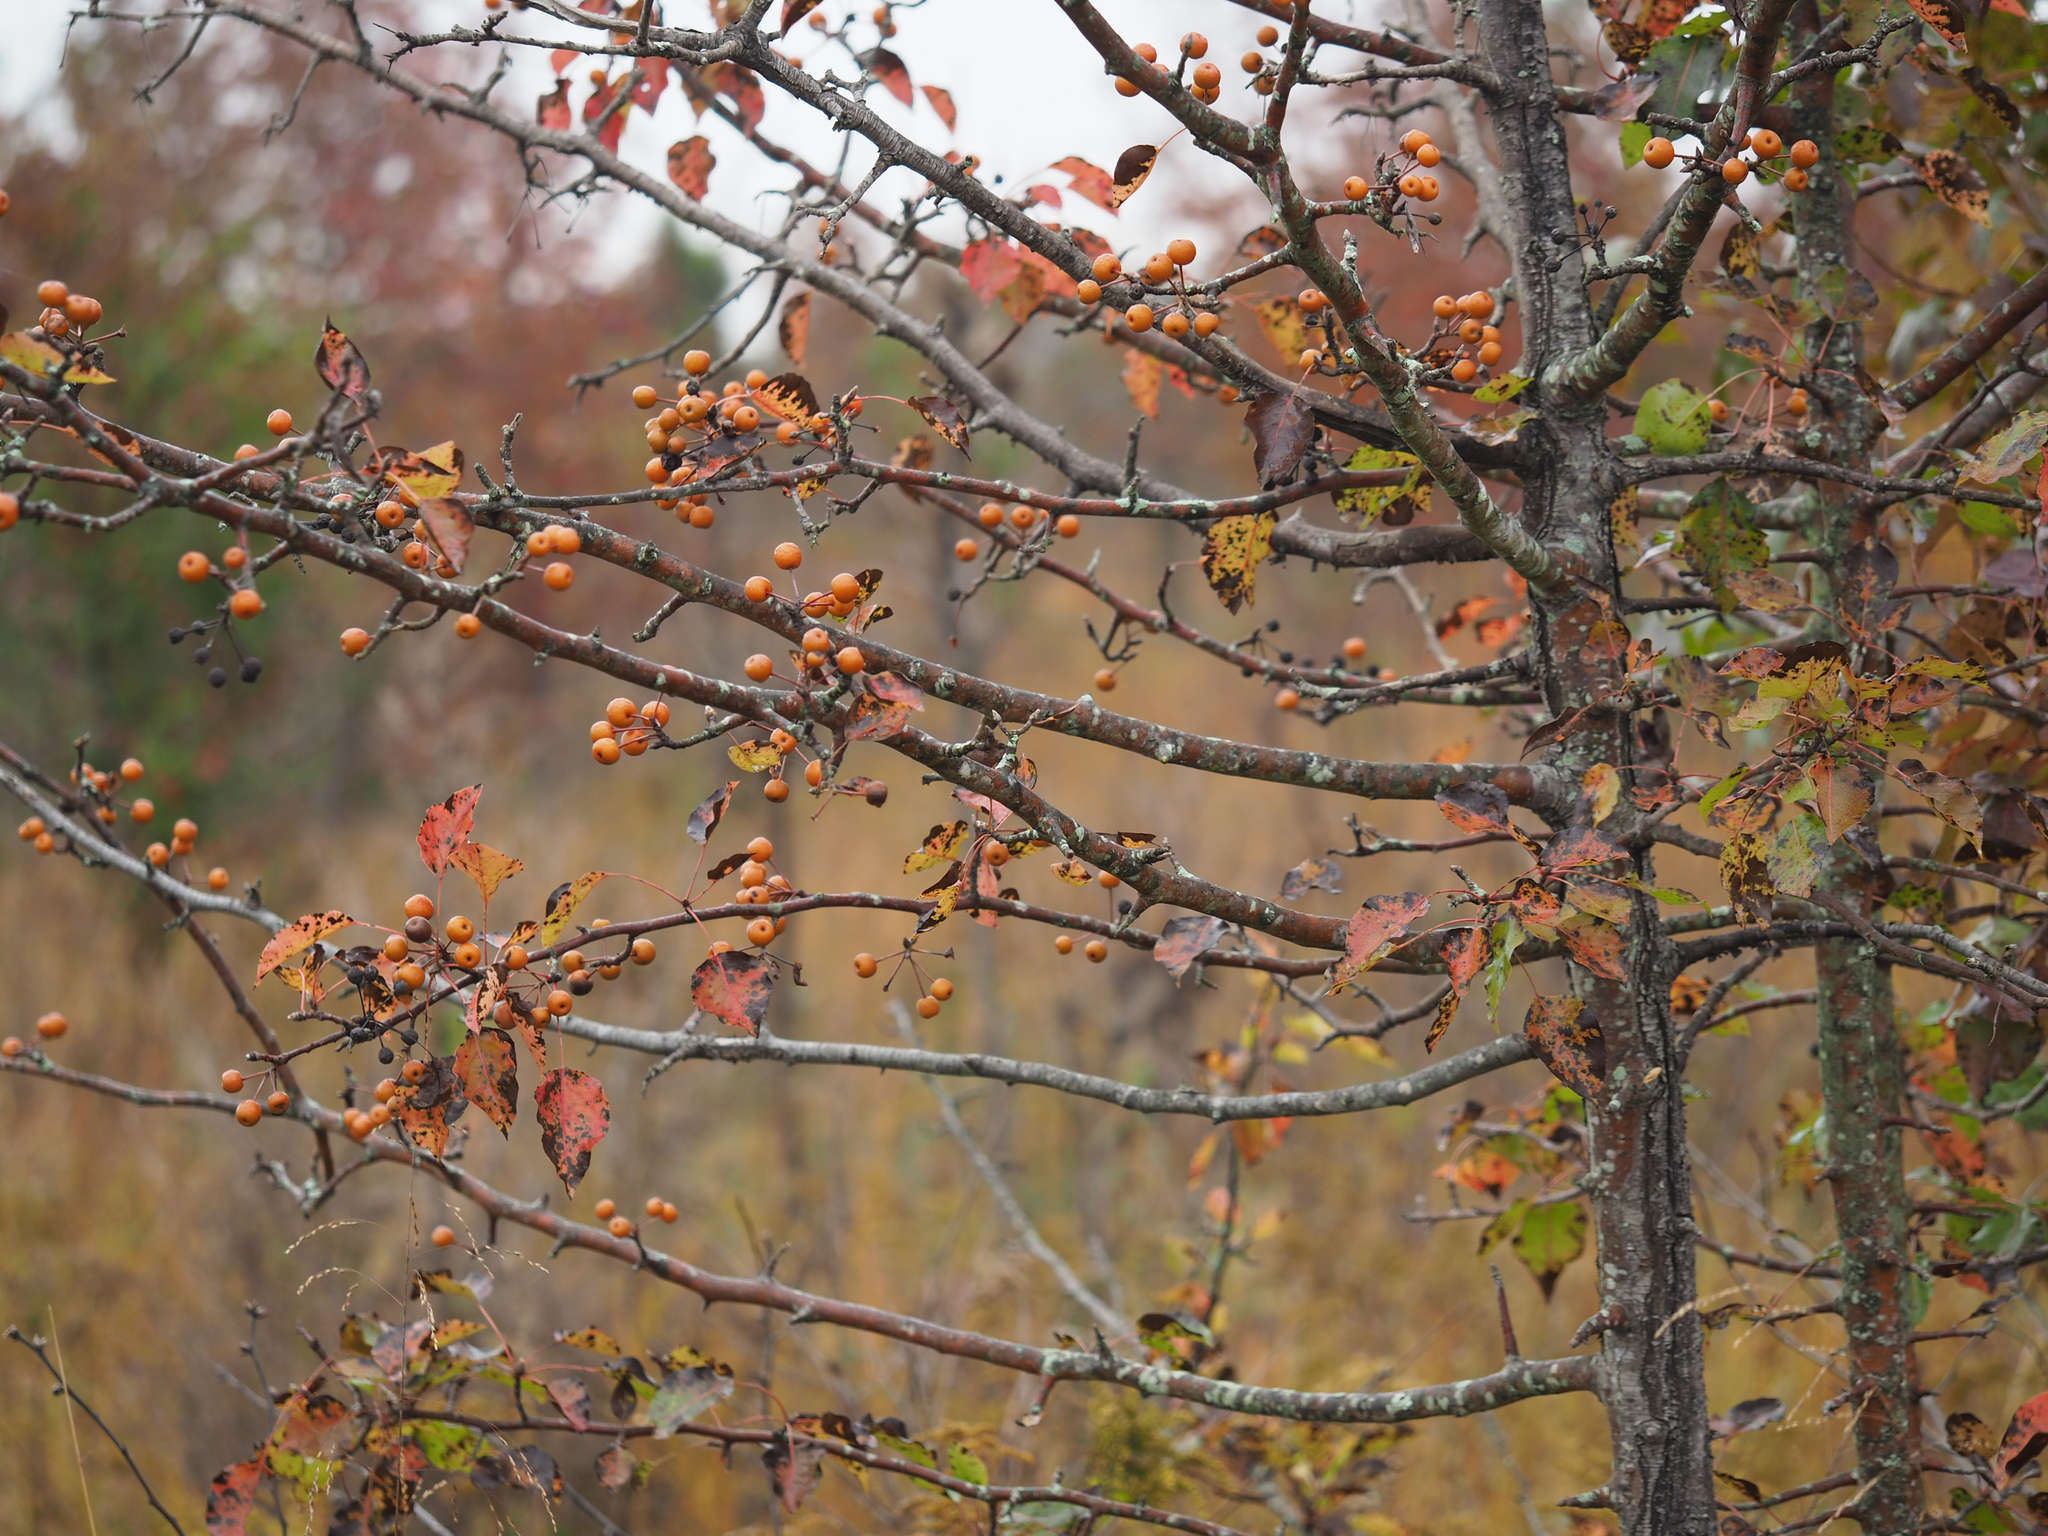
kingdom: Plantae
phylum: Tracheophyta
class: Magnoliopsida
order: Rosales
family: Rosaceae
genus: Pyrus
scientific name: Pyrus calleryana
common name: Callery pear
